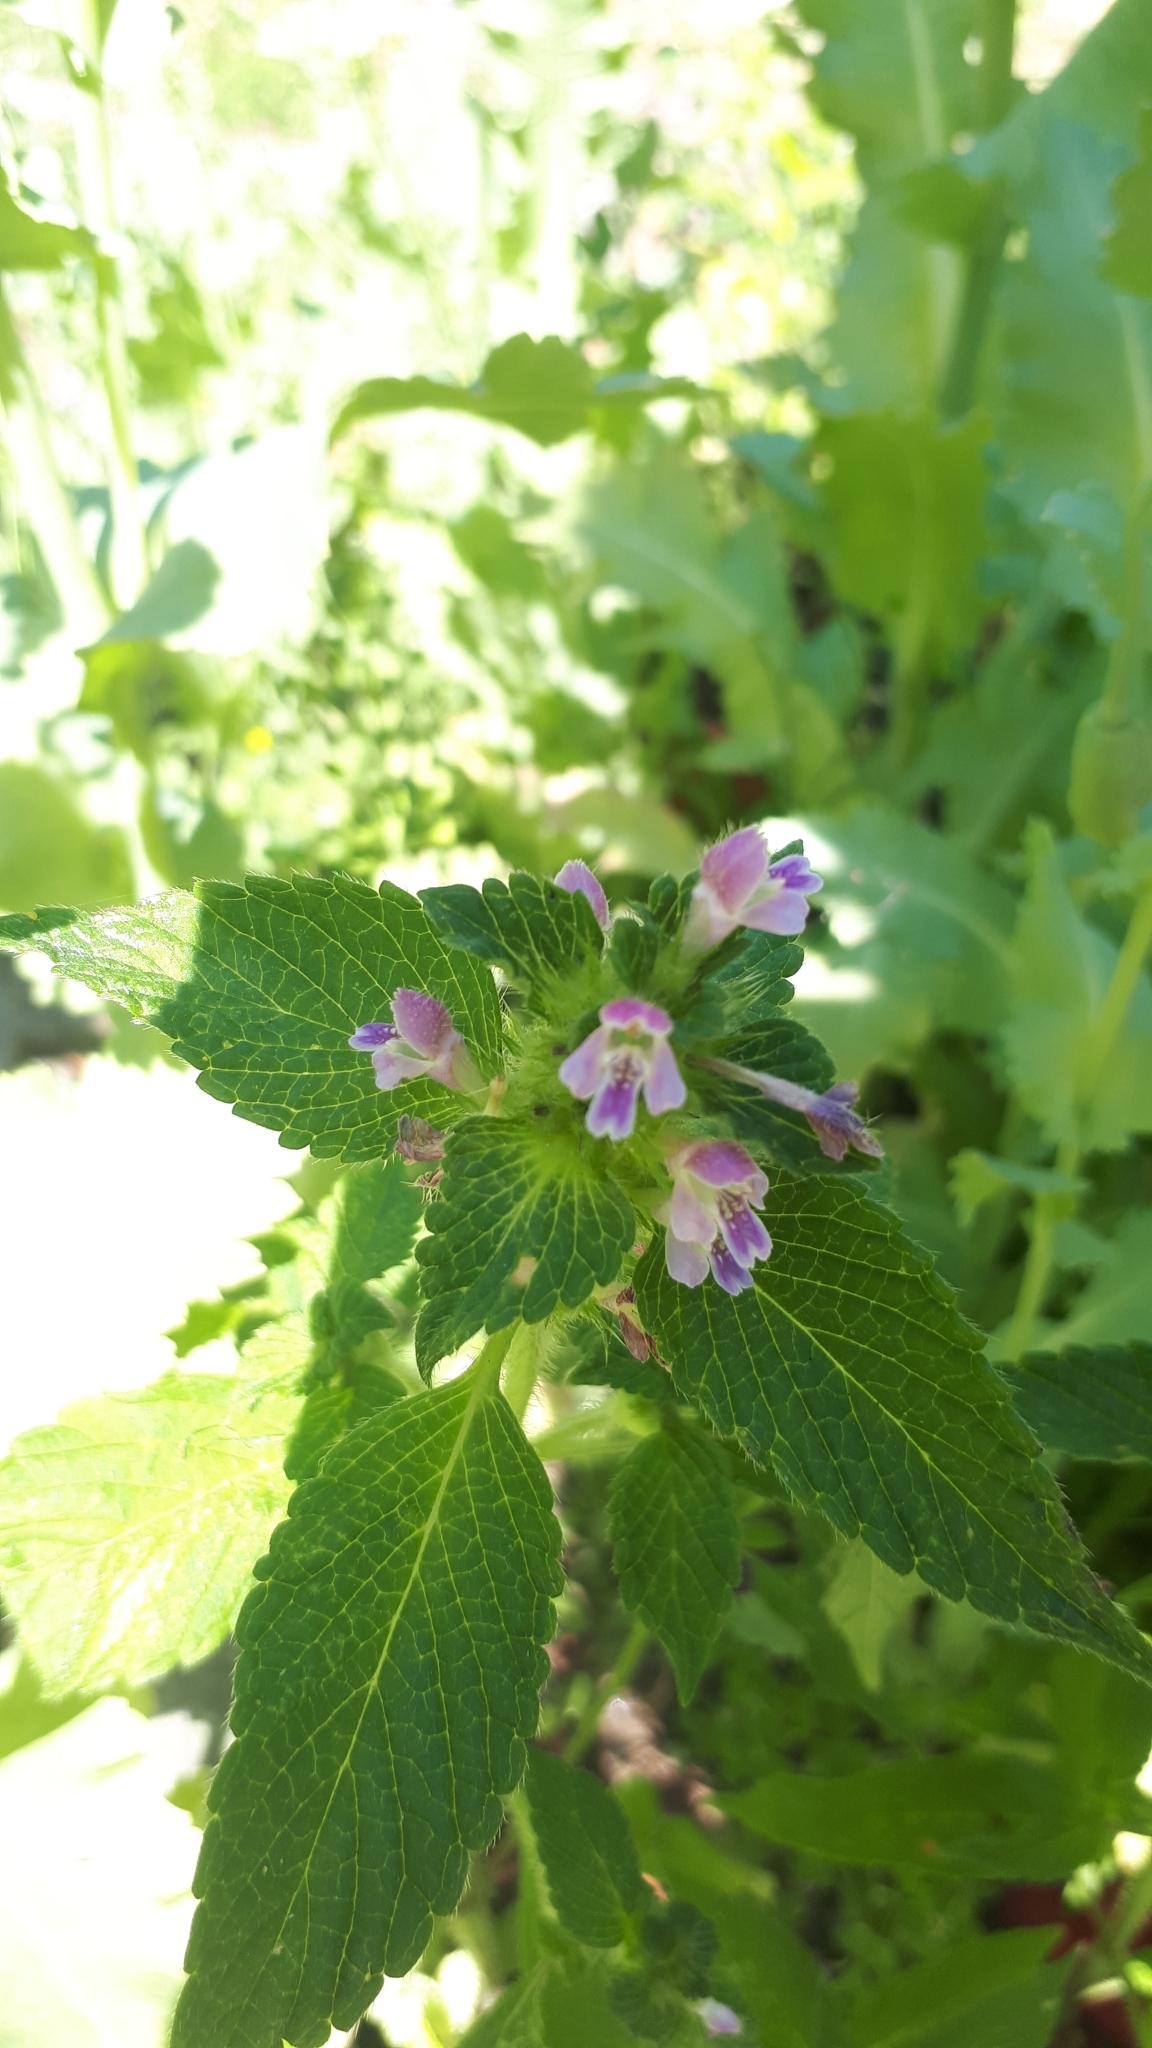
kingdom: Plantae
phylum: Tracheophyta
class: Magnoliopsida
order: Lamiales
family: Lamiaceae
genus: Galeopsis
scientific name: Galeopsis bifida
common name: Bifid hemp-nettle
